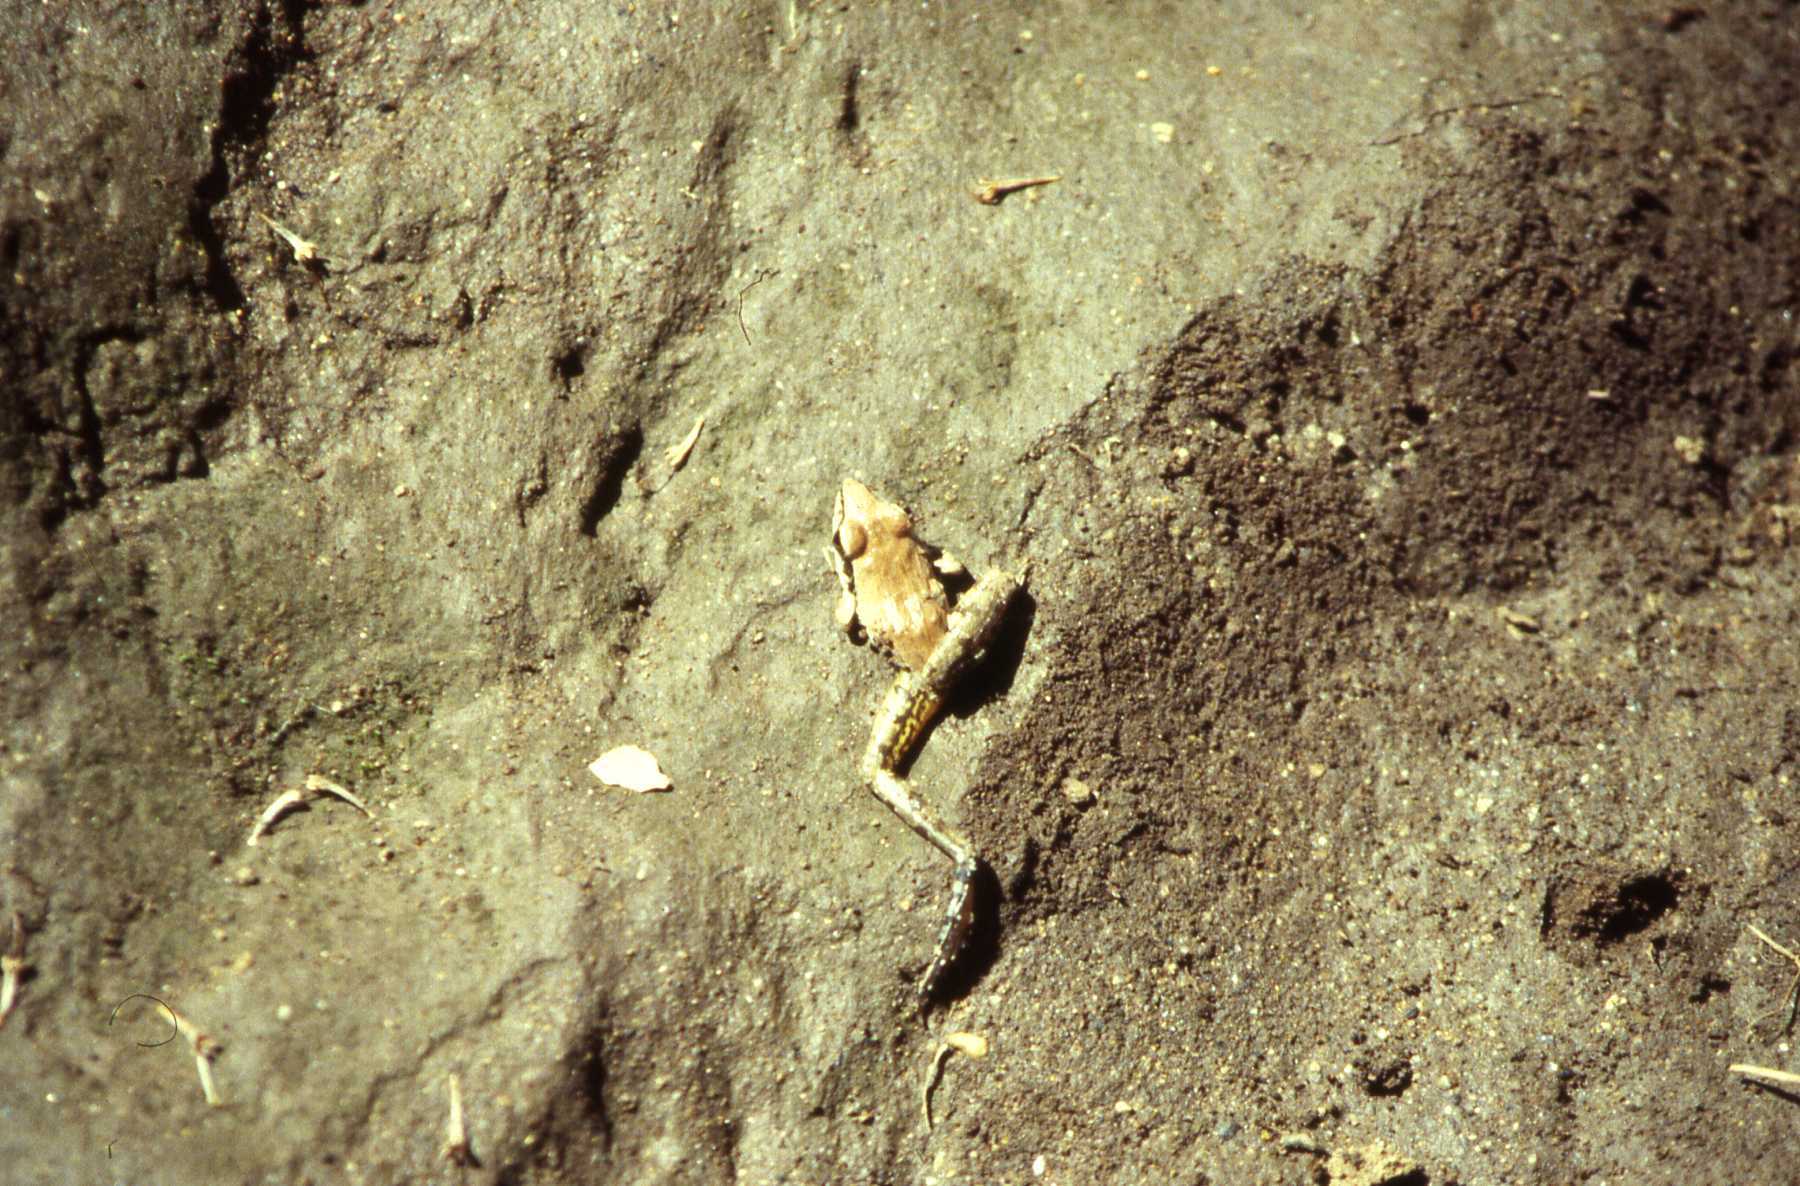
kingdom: Animalia
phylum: Chordata
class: Amphibia
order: Anura
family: Ptychadenidae
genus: Ptychadena
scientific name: Ptychadena anchietae
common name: Anchieta's ridged frog
